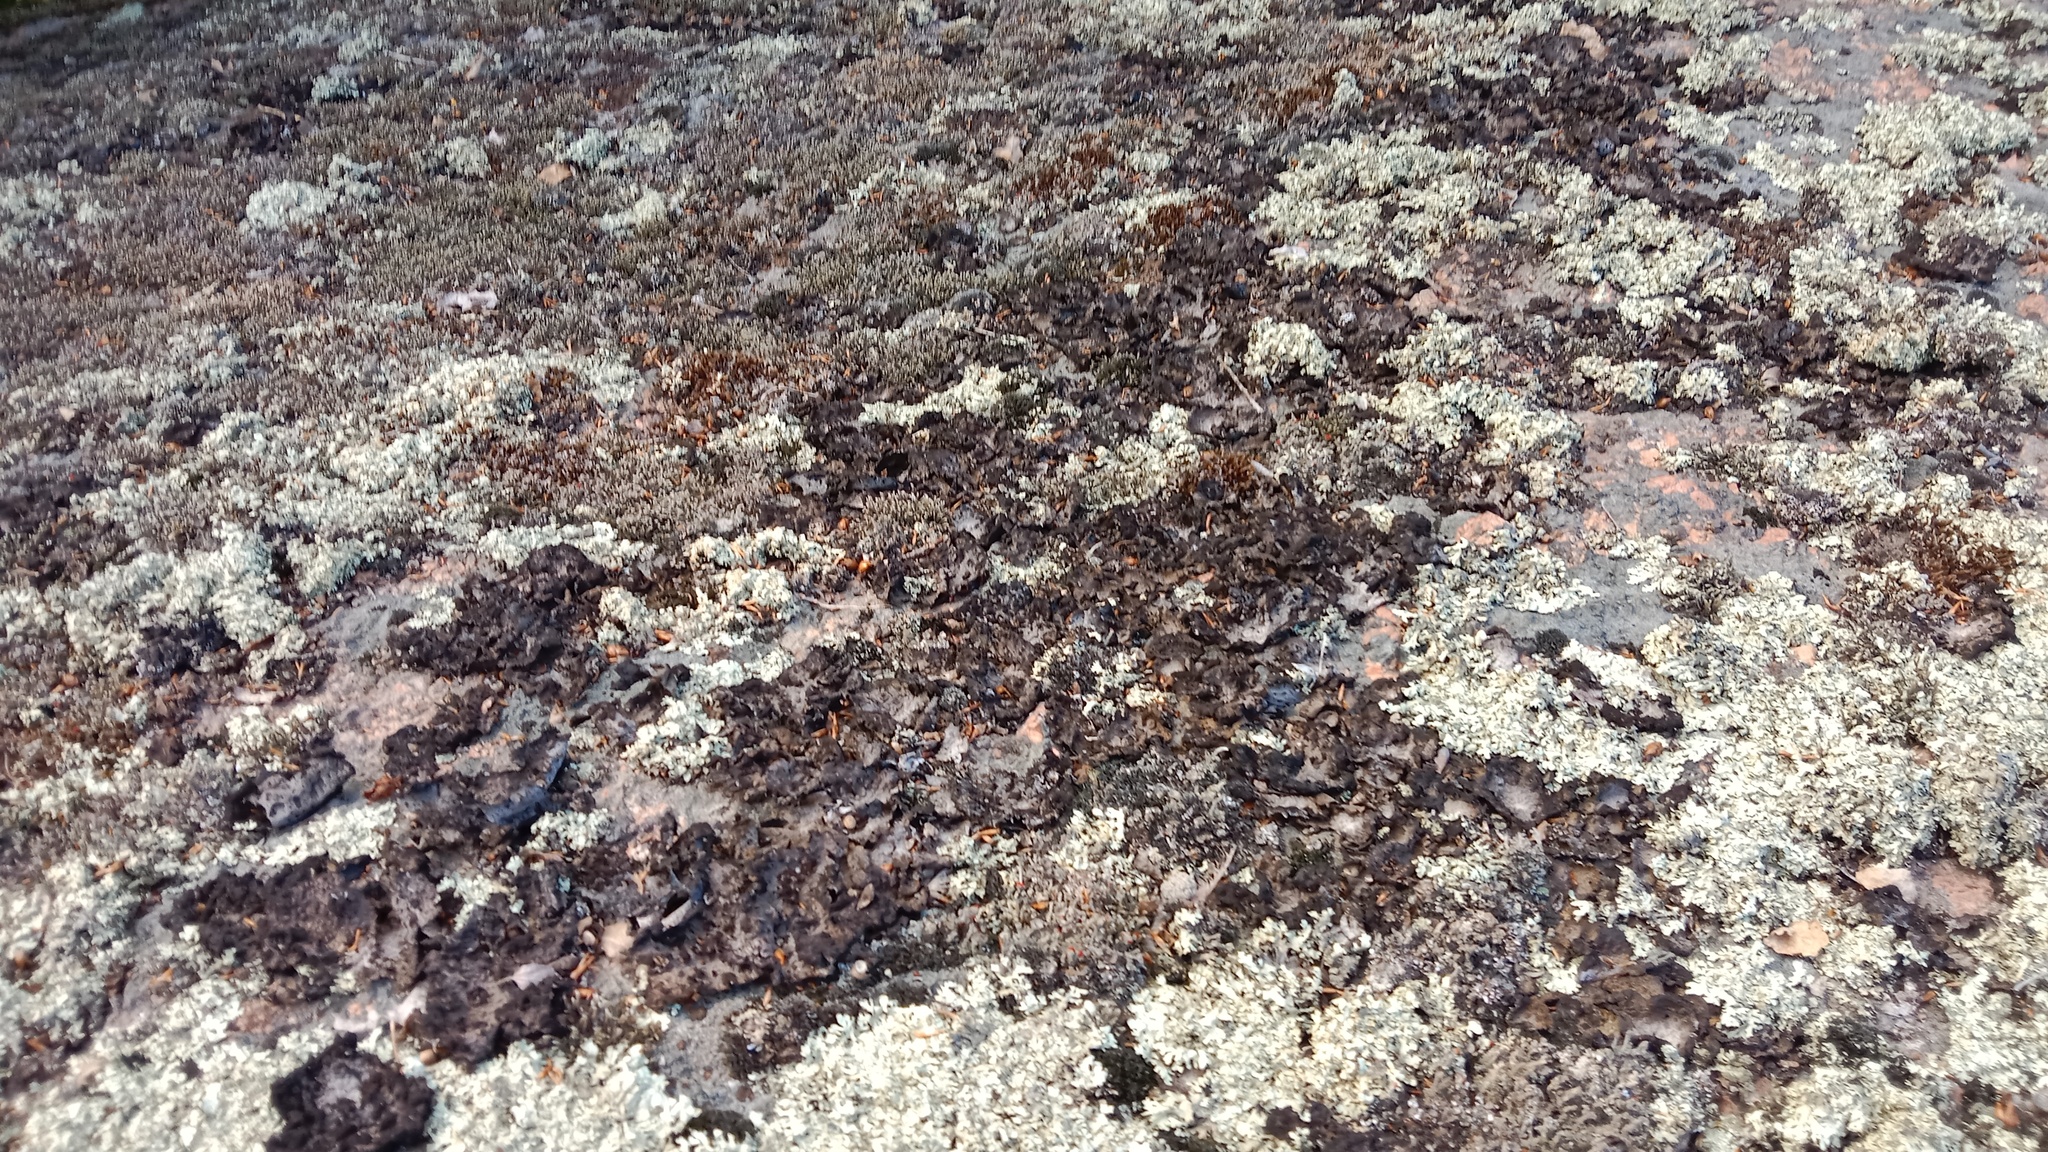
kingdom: Fungi
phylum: Ascomycota
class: Lecanoromycetes
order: Umbilicariales
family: Umbilicariaceae
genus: Lasallia
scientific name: Lasallia pustulata
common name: Blistered toadskin lichen
